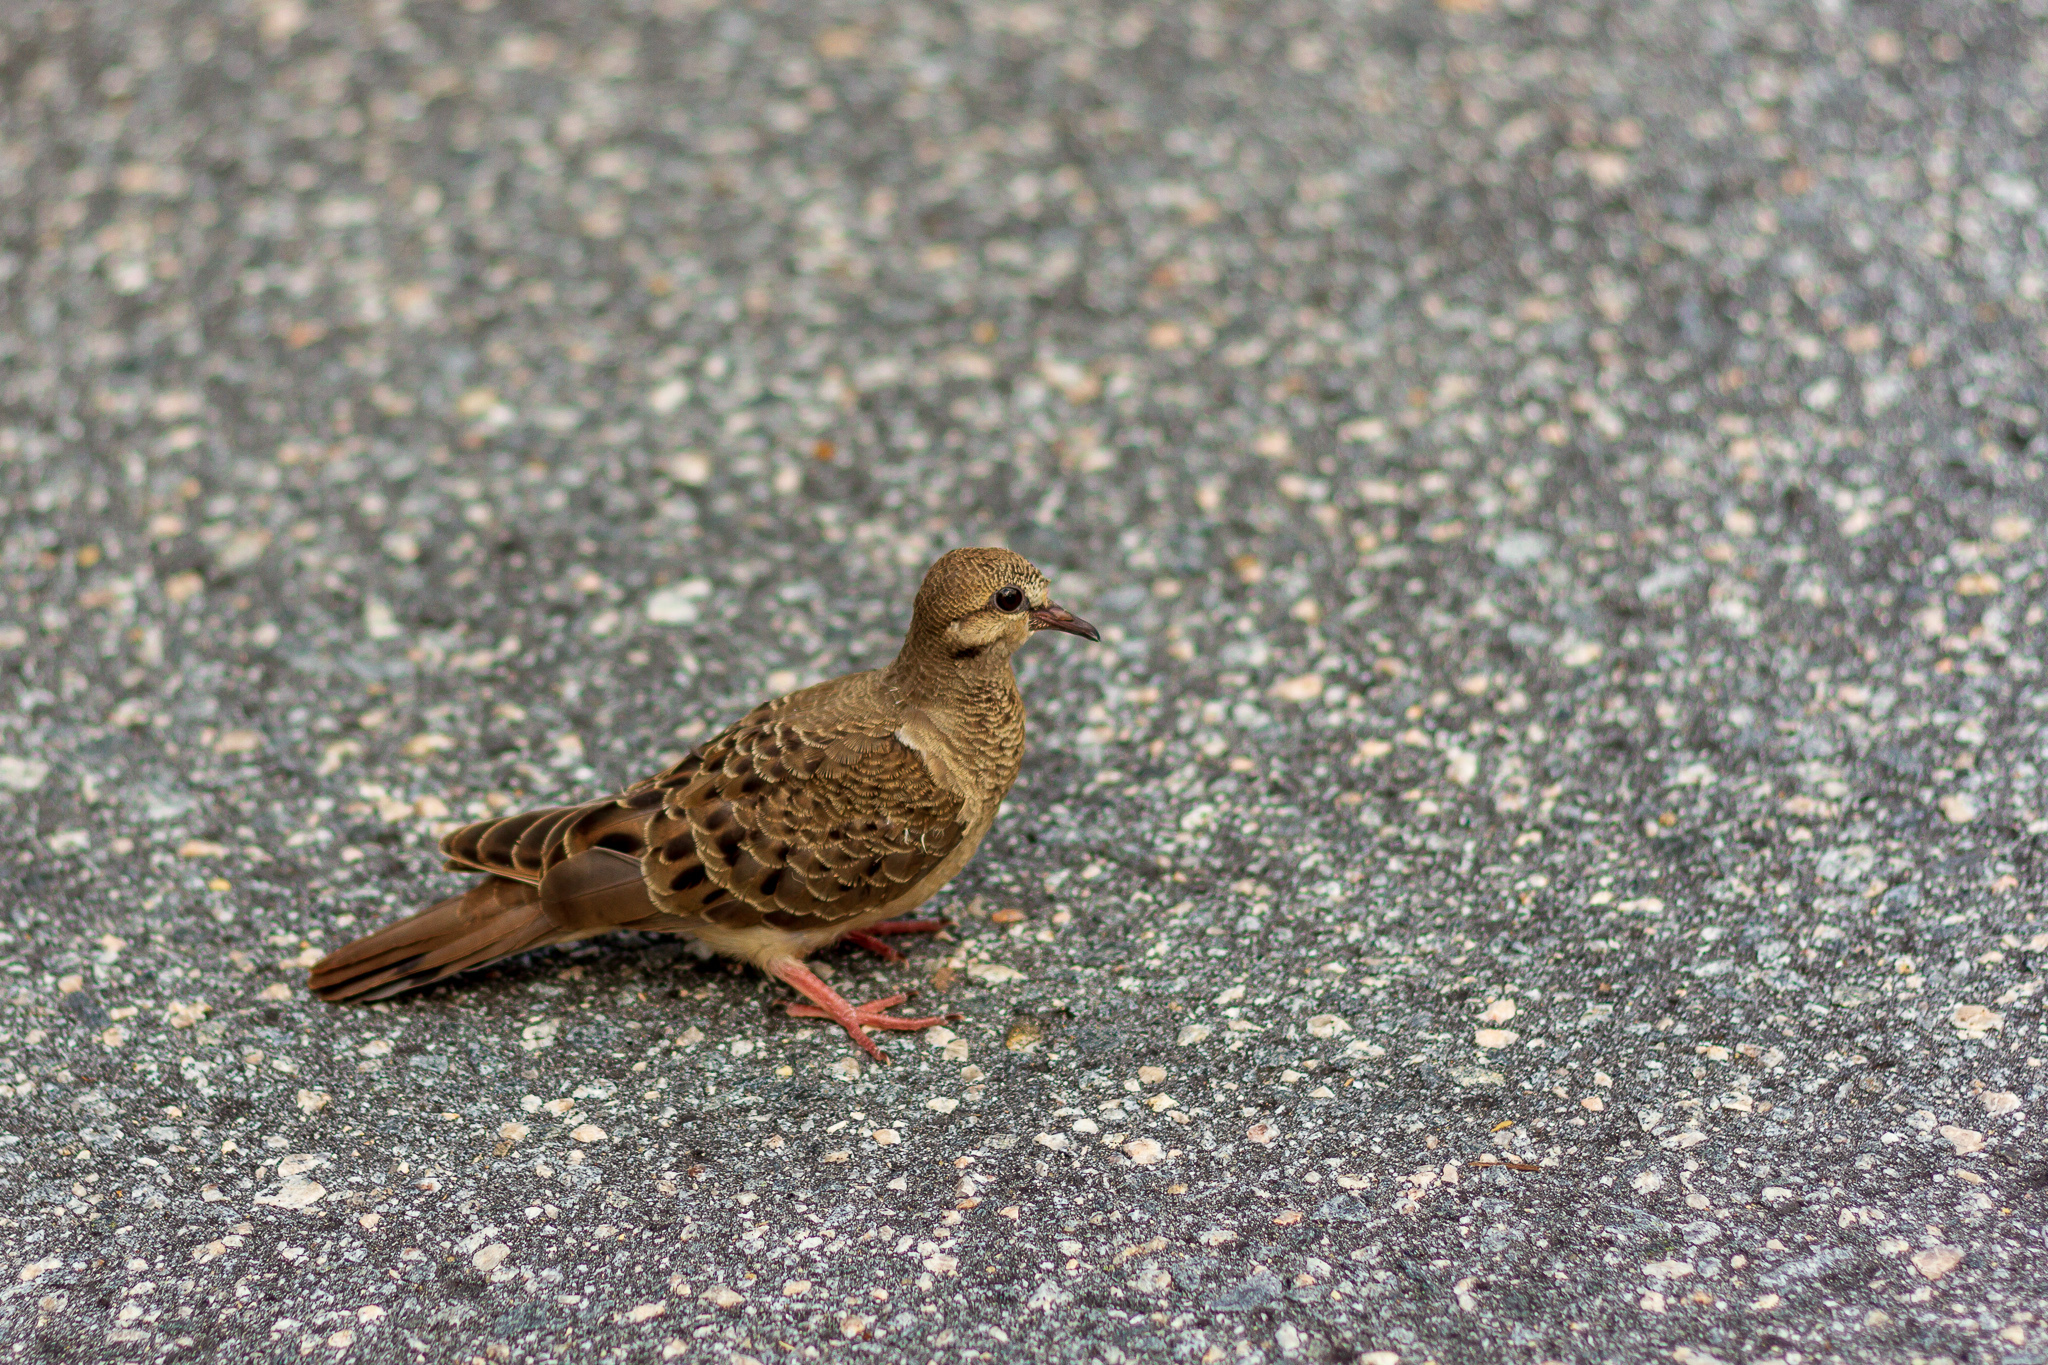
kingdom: Animalia
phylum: Chordata
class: Aves
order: Columbiformes
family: Columbidae
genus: Zenaida
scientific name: Zenaida macroura
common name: Mourning dove
